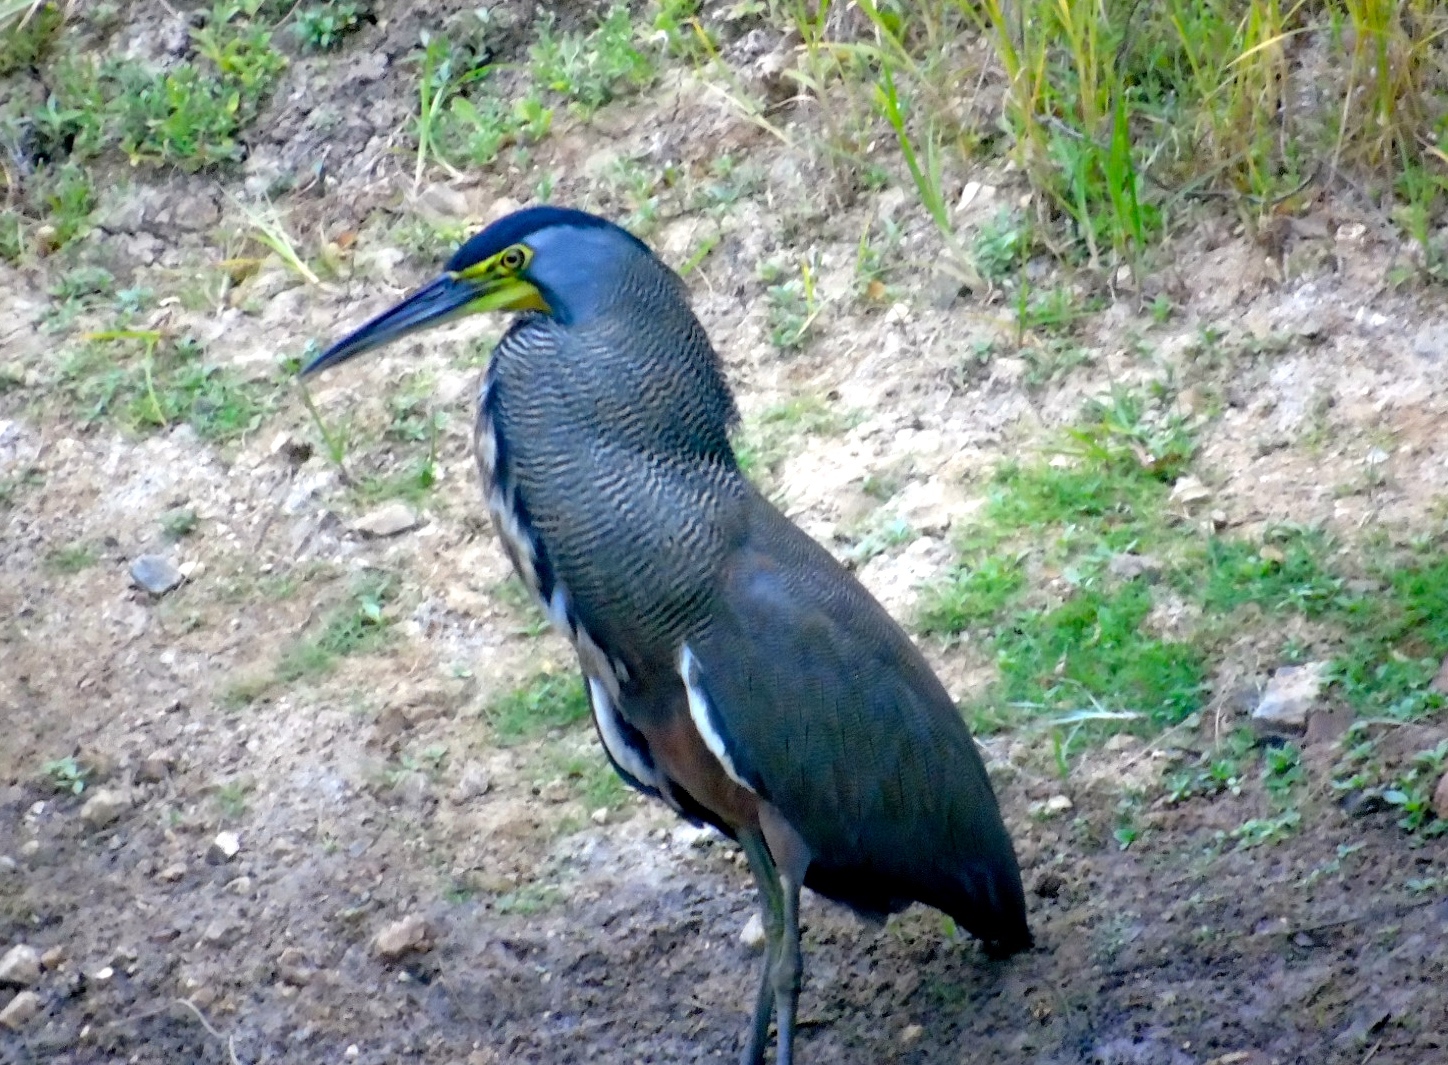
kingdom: Animalia
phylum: Chordata
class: Aves
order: Pelecaniformes
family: Ardeidae
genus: Tigrisoma
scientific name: Tigrisoma mexicanum
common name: Bare-throated tiger-heron
